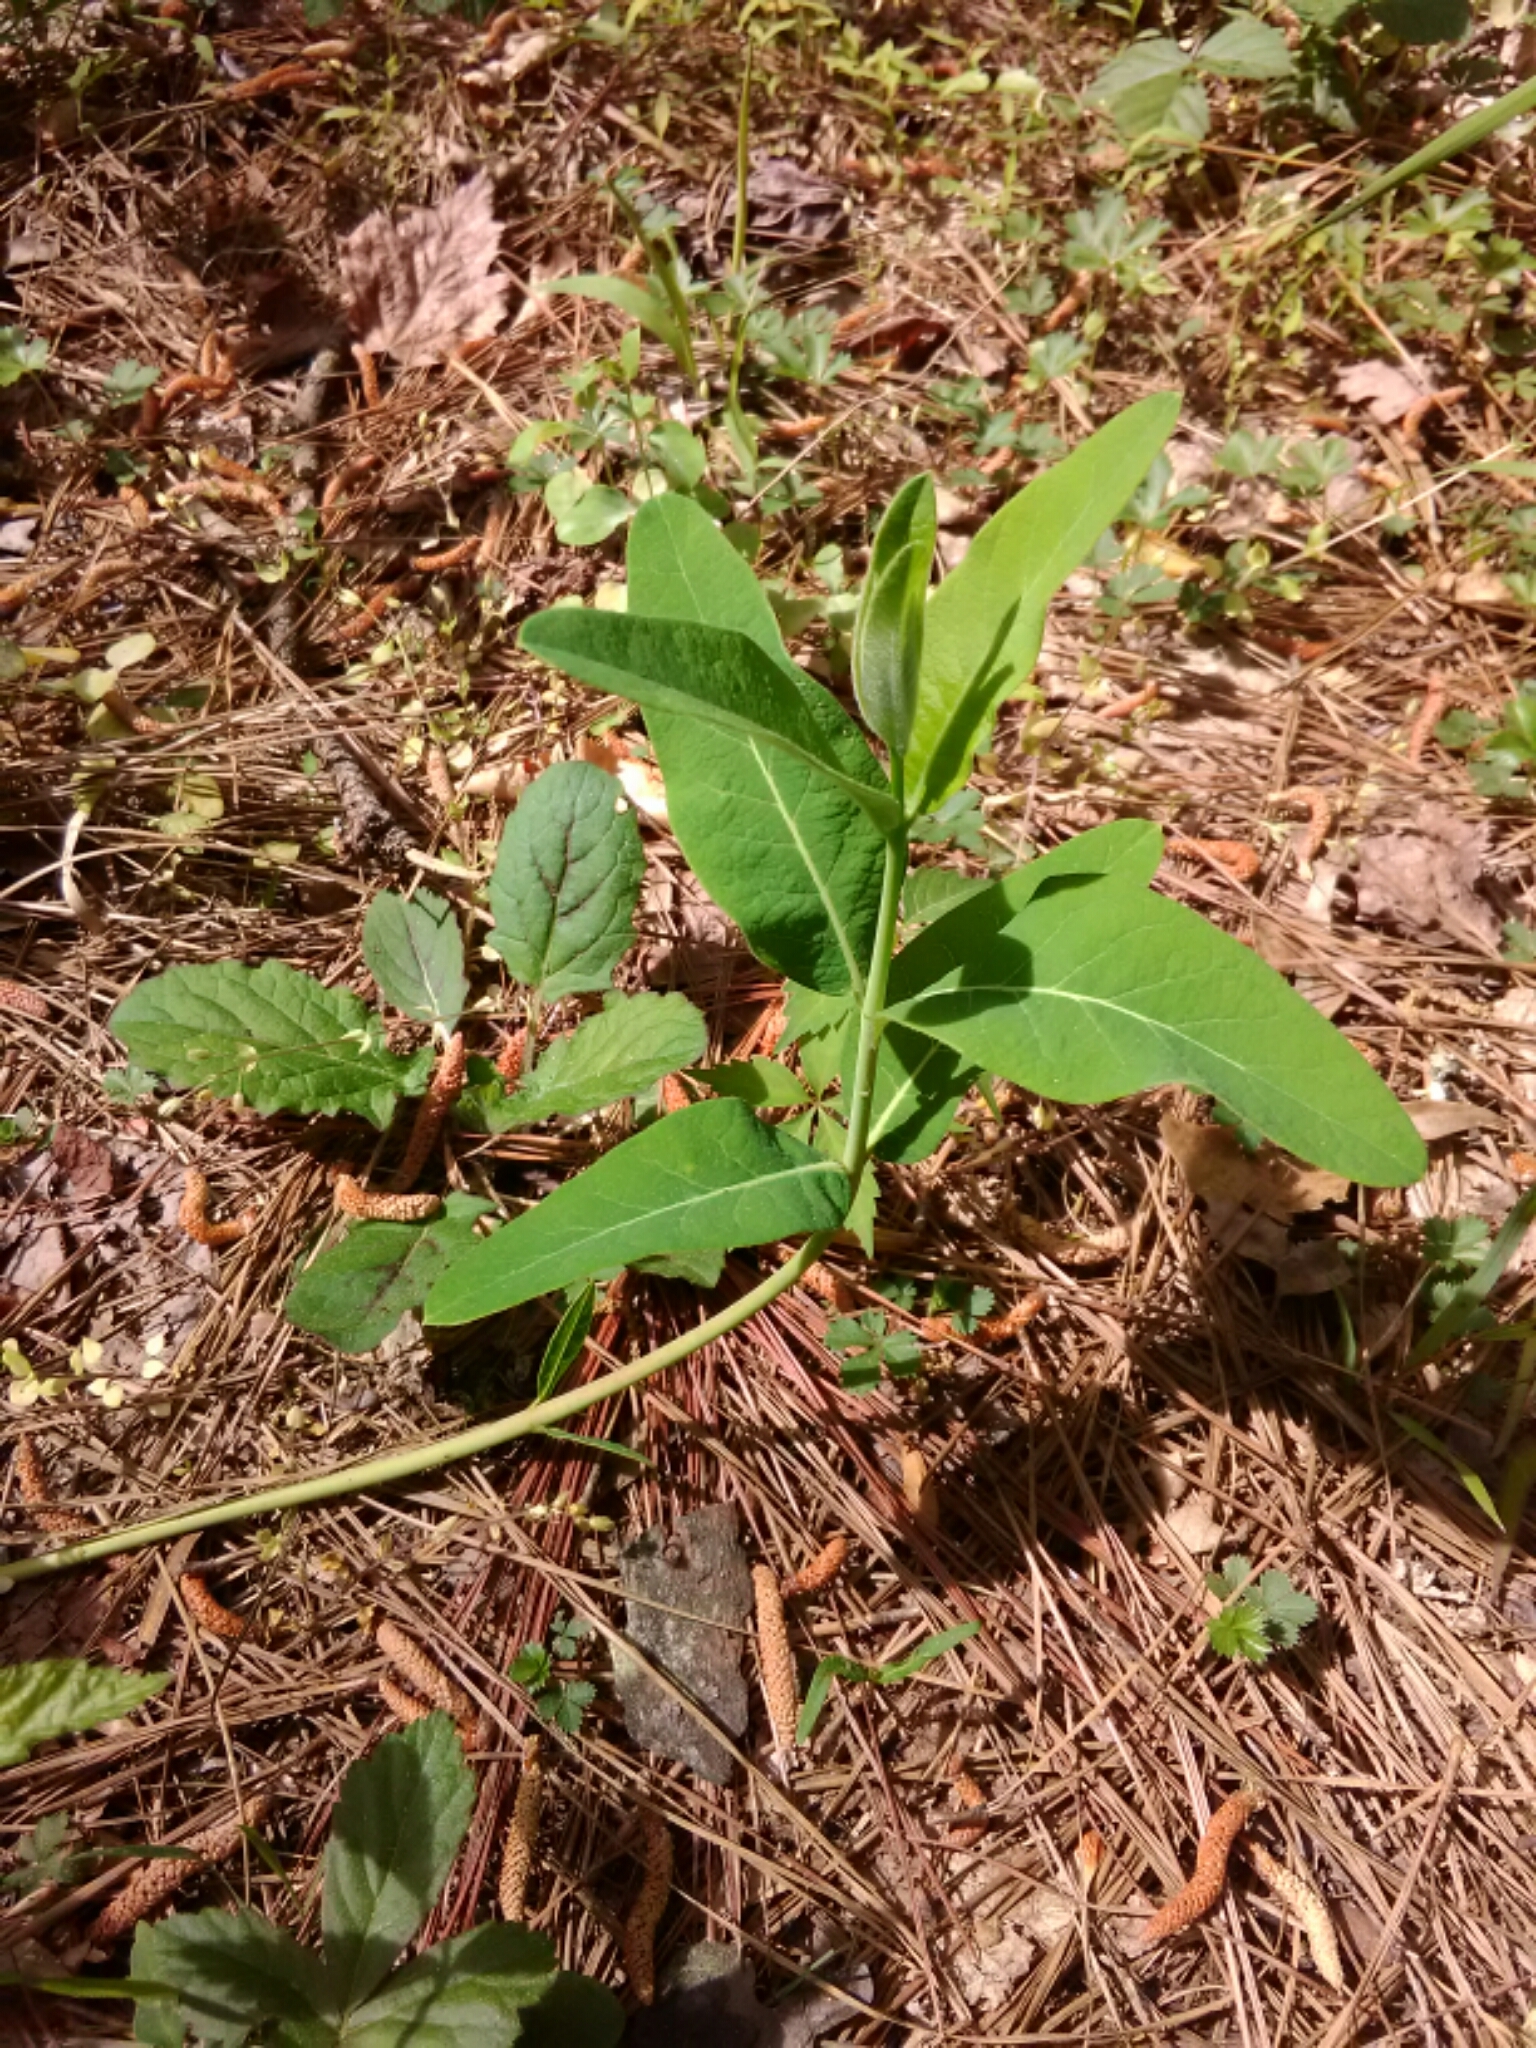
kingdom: Plantae
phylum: Tracheophyta
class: Magnoliopsida
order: Gentianales
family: Apocynaceae
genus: Apocynum
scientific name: Apocynum cannabinum
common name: Hemp dogbane
